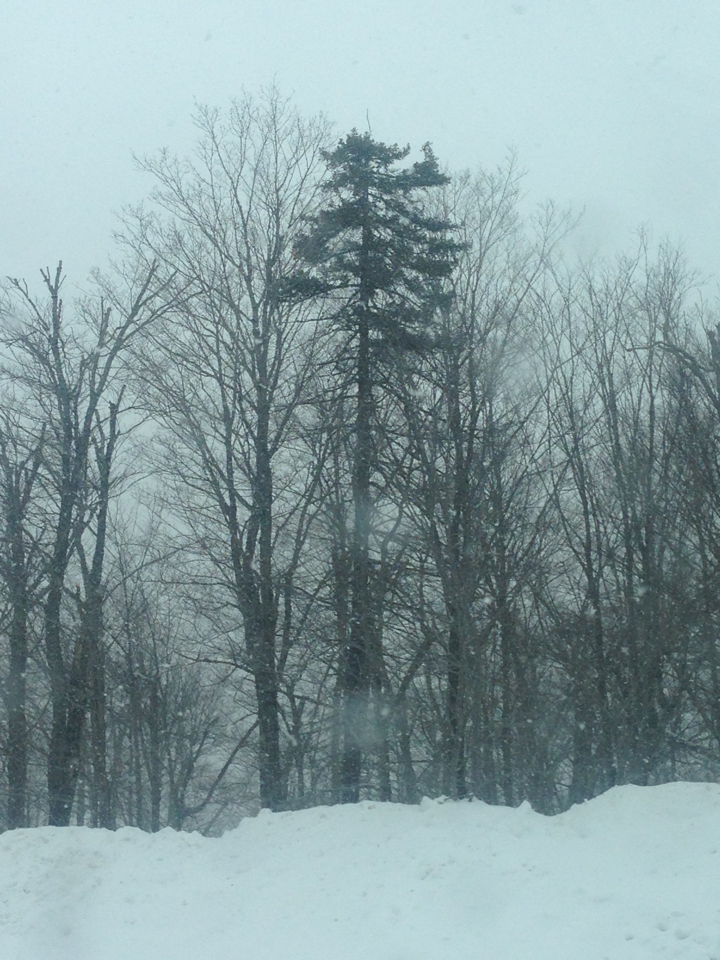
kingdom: Plantae
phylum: Tracheophyta
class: Pinopsida
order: Pinales
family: Pinaceae
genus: Picea
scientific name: Picea rubens
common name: Red spruce
